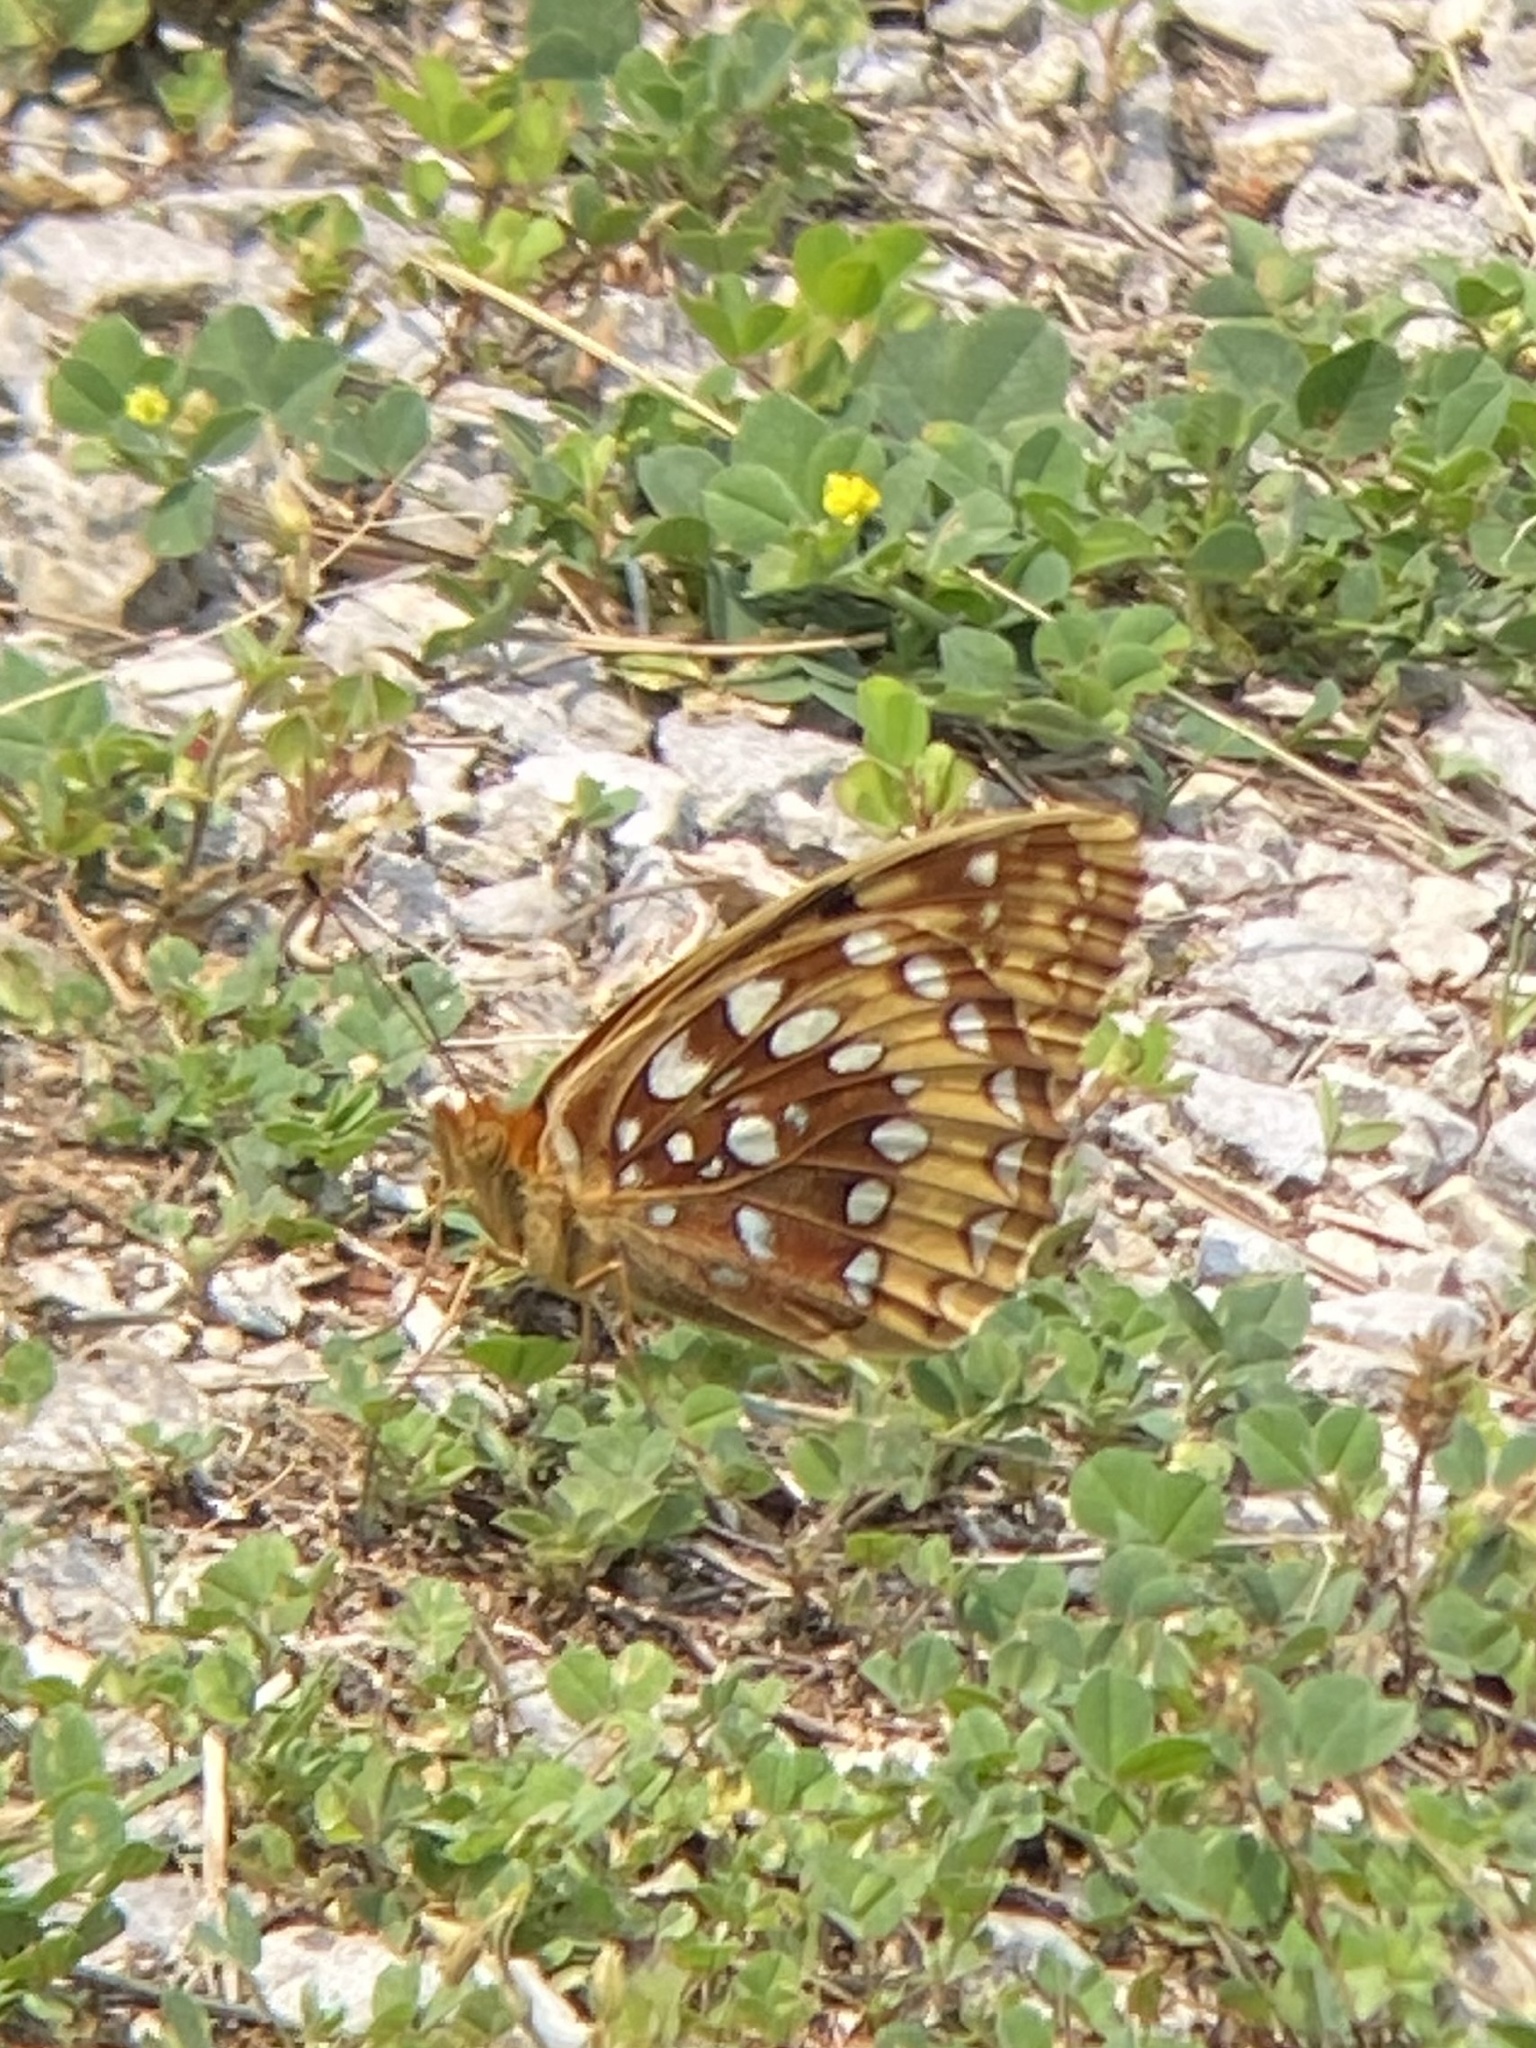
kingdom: Animalia
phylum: Arthropoda
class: Insecta
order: Lepidoptera
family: Nymphalidae
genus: Speyeria
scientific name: Speyeria cybele
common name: Great spangled fritillary
